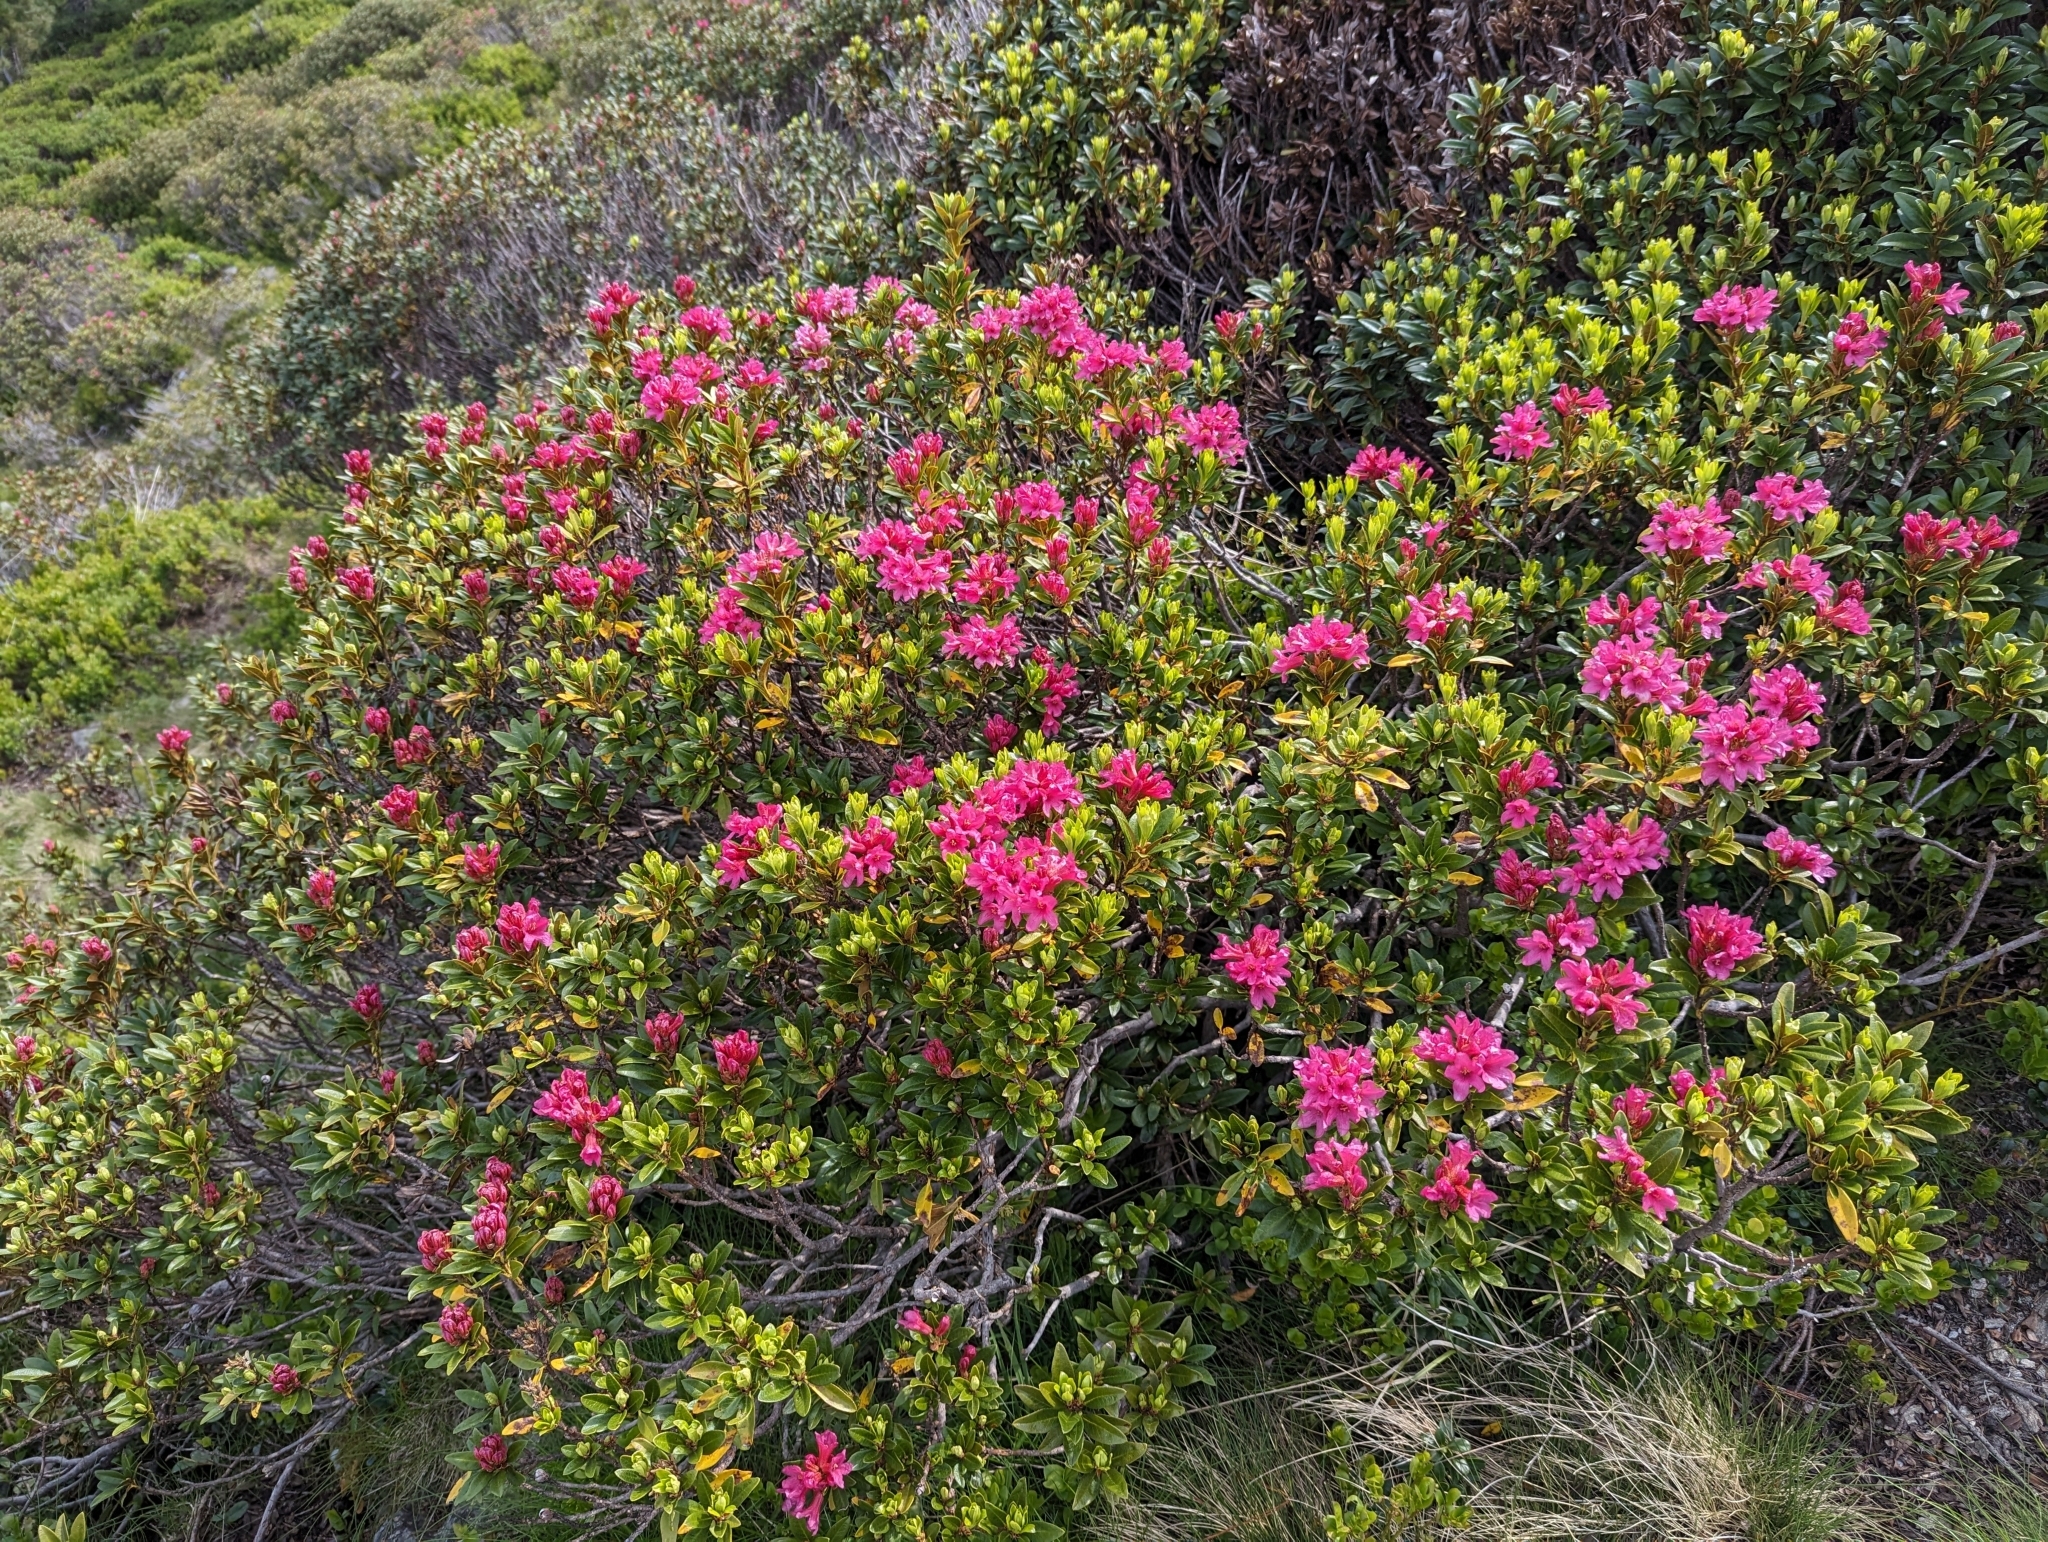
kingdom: Plantae
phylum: Tracheophyta
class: Magnoliopsida
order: Ericales
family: Ericaceae
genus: Rhododendron
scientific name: Rhododendron ferrugineum
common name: Alpenrose
